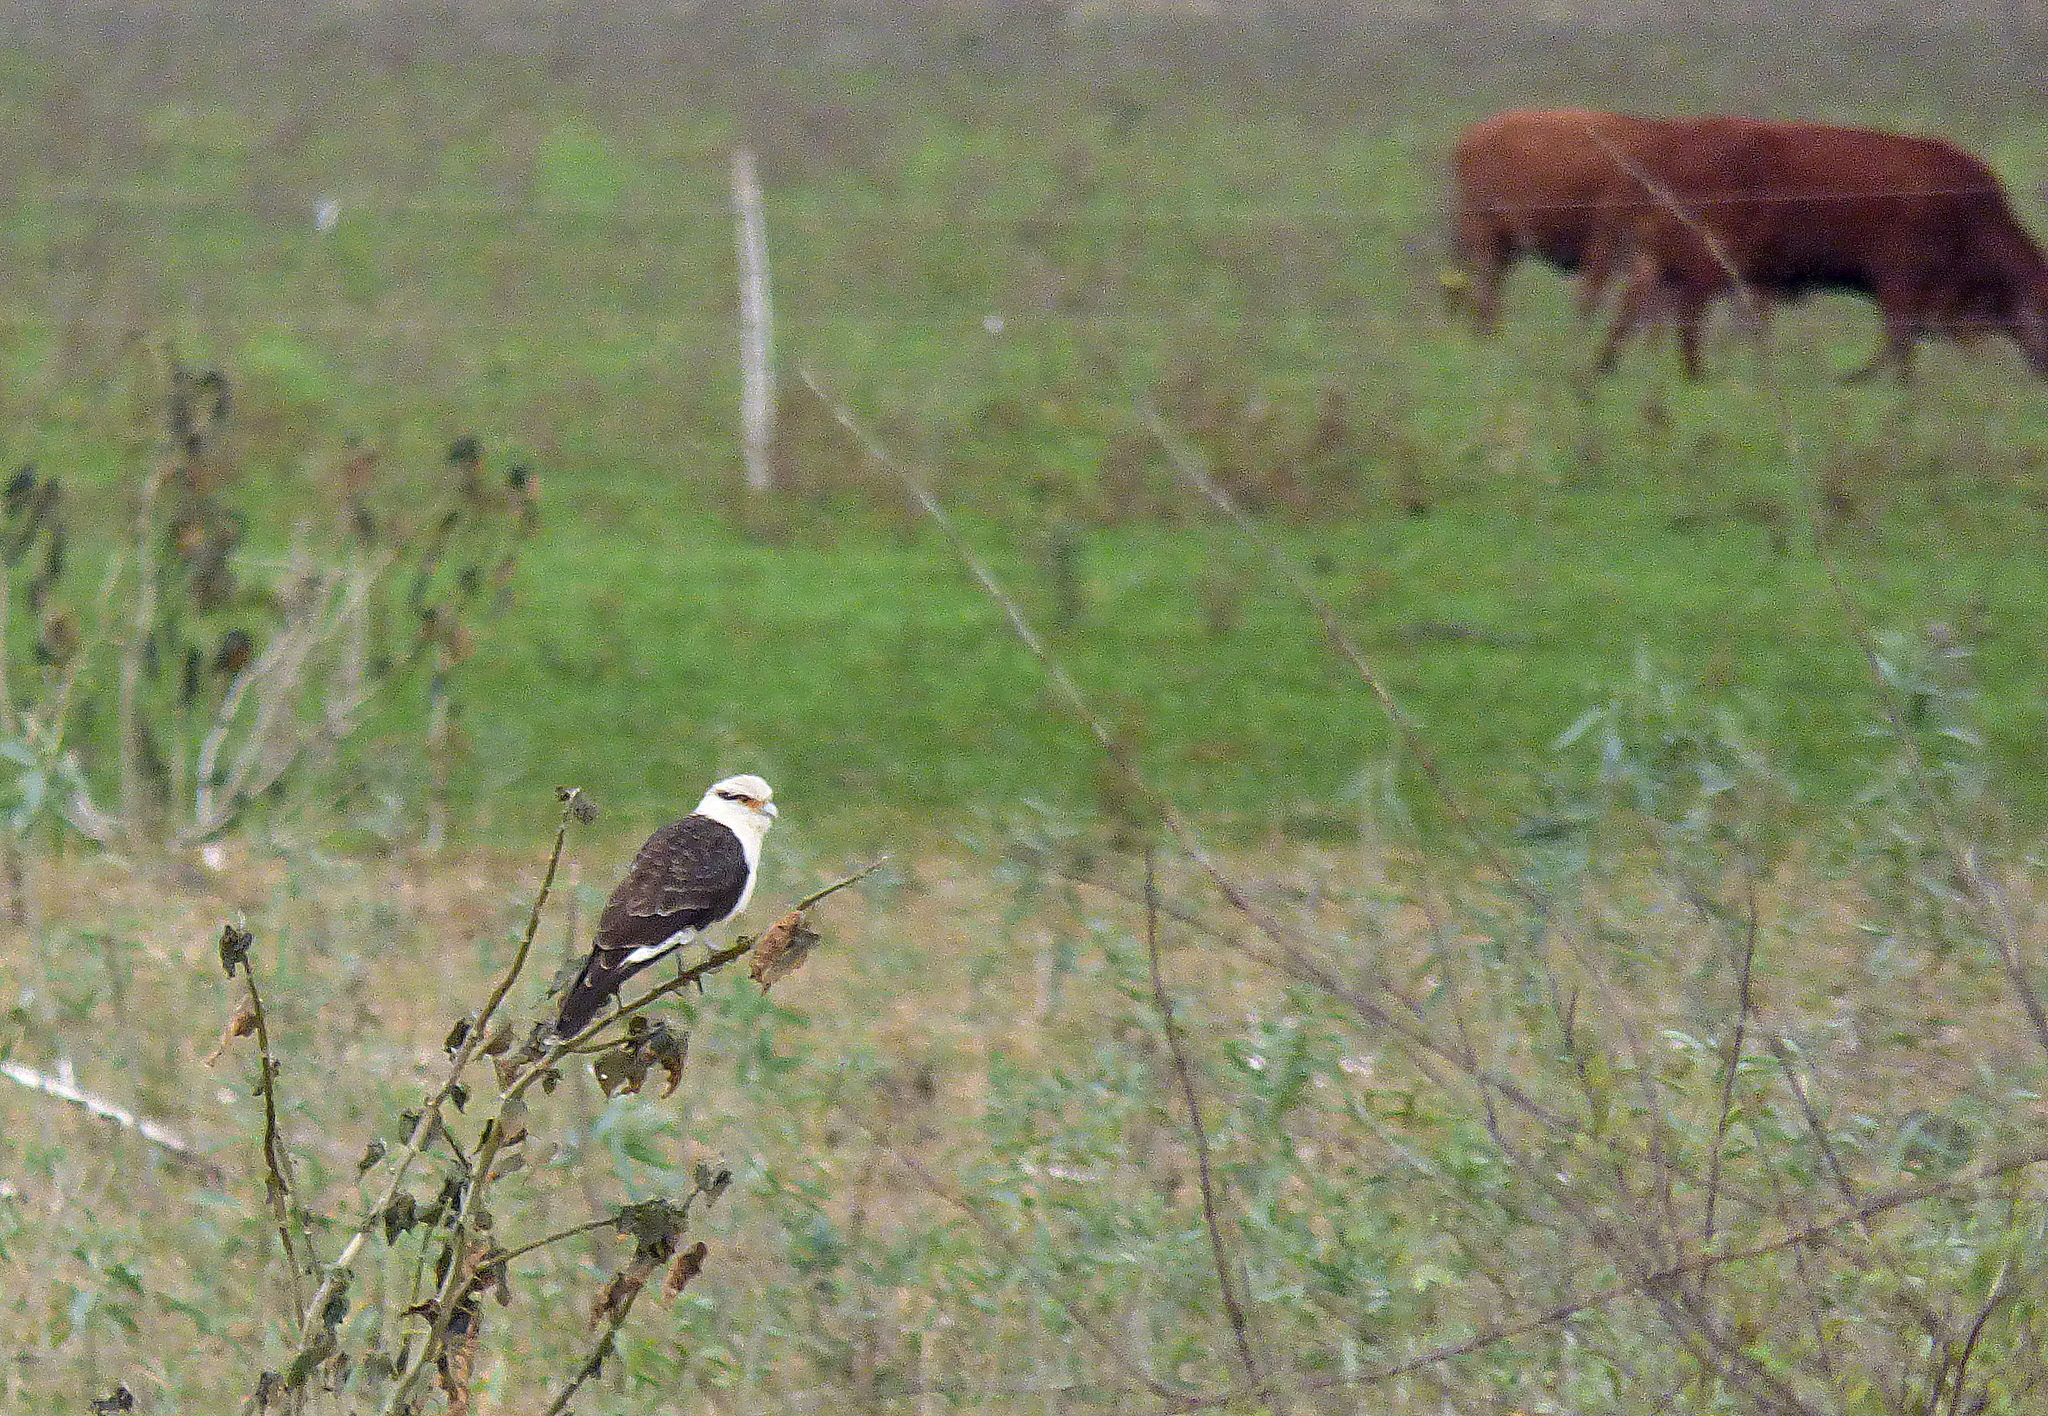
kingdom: Animalia
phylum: Chordata
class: Aves
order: Falconiformes
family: Falconidae
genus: Daptrius
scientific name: Daptrius
